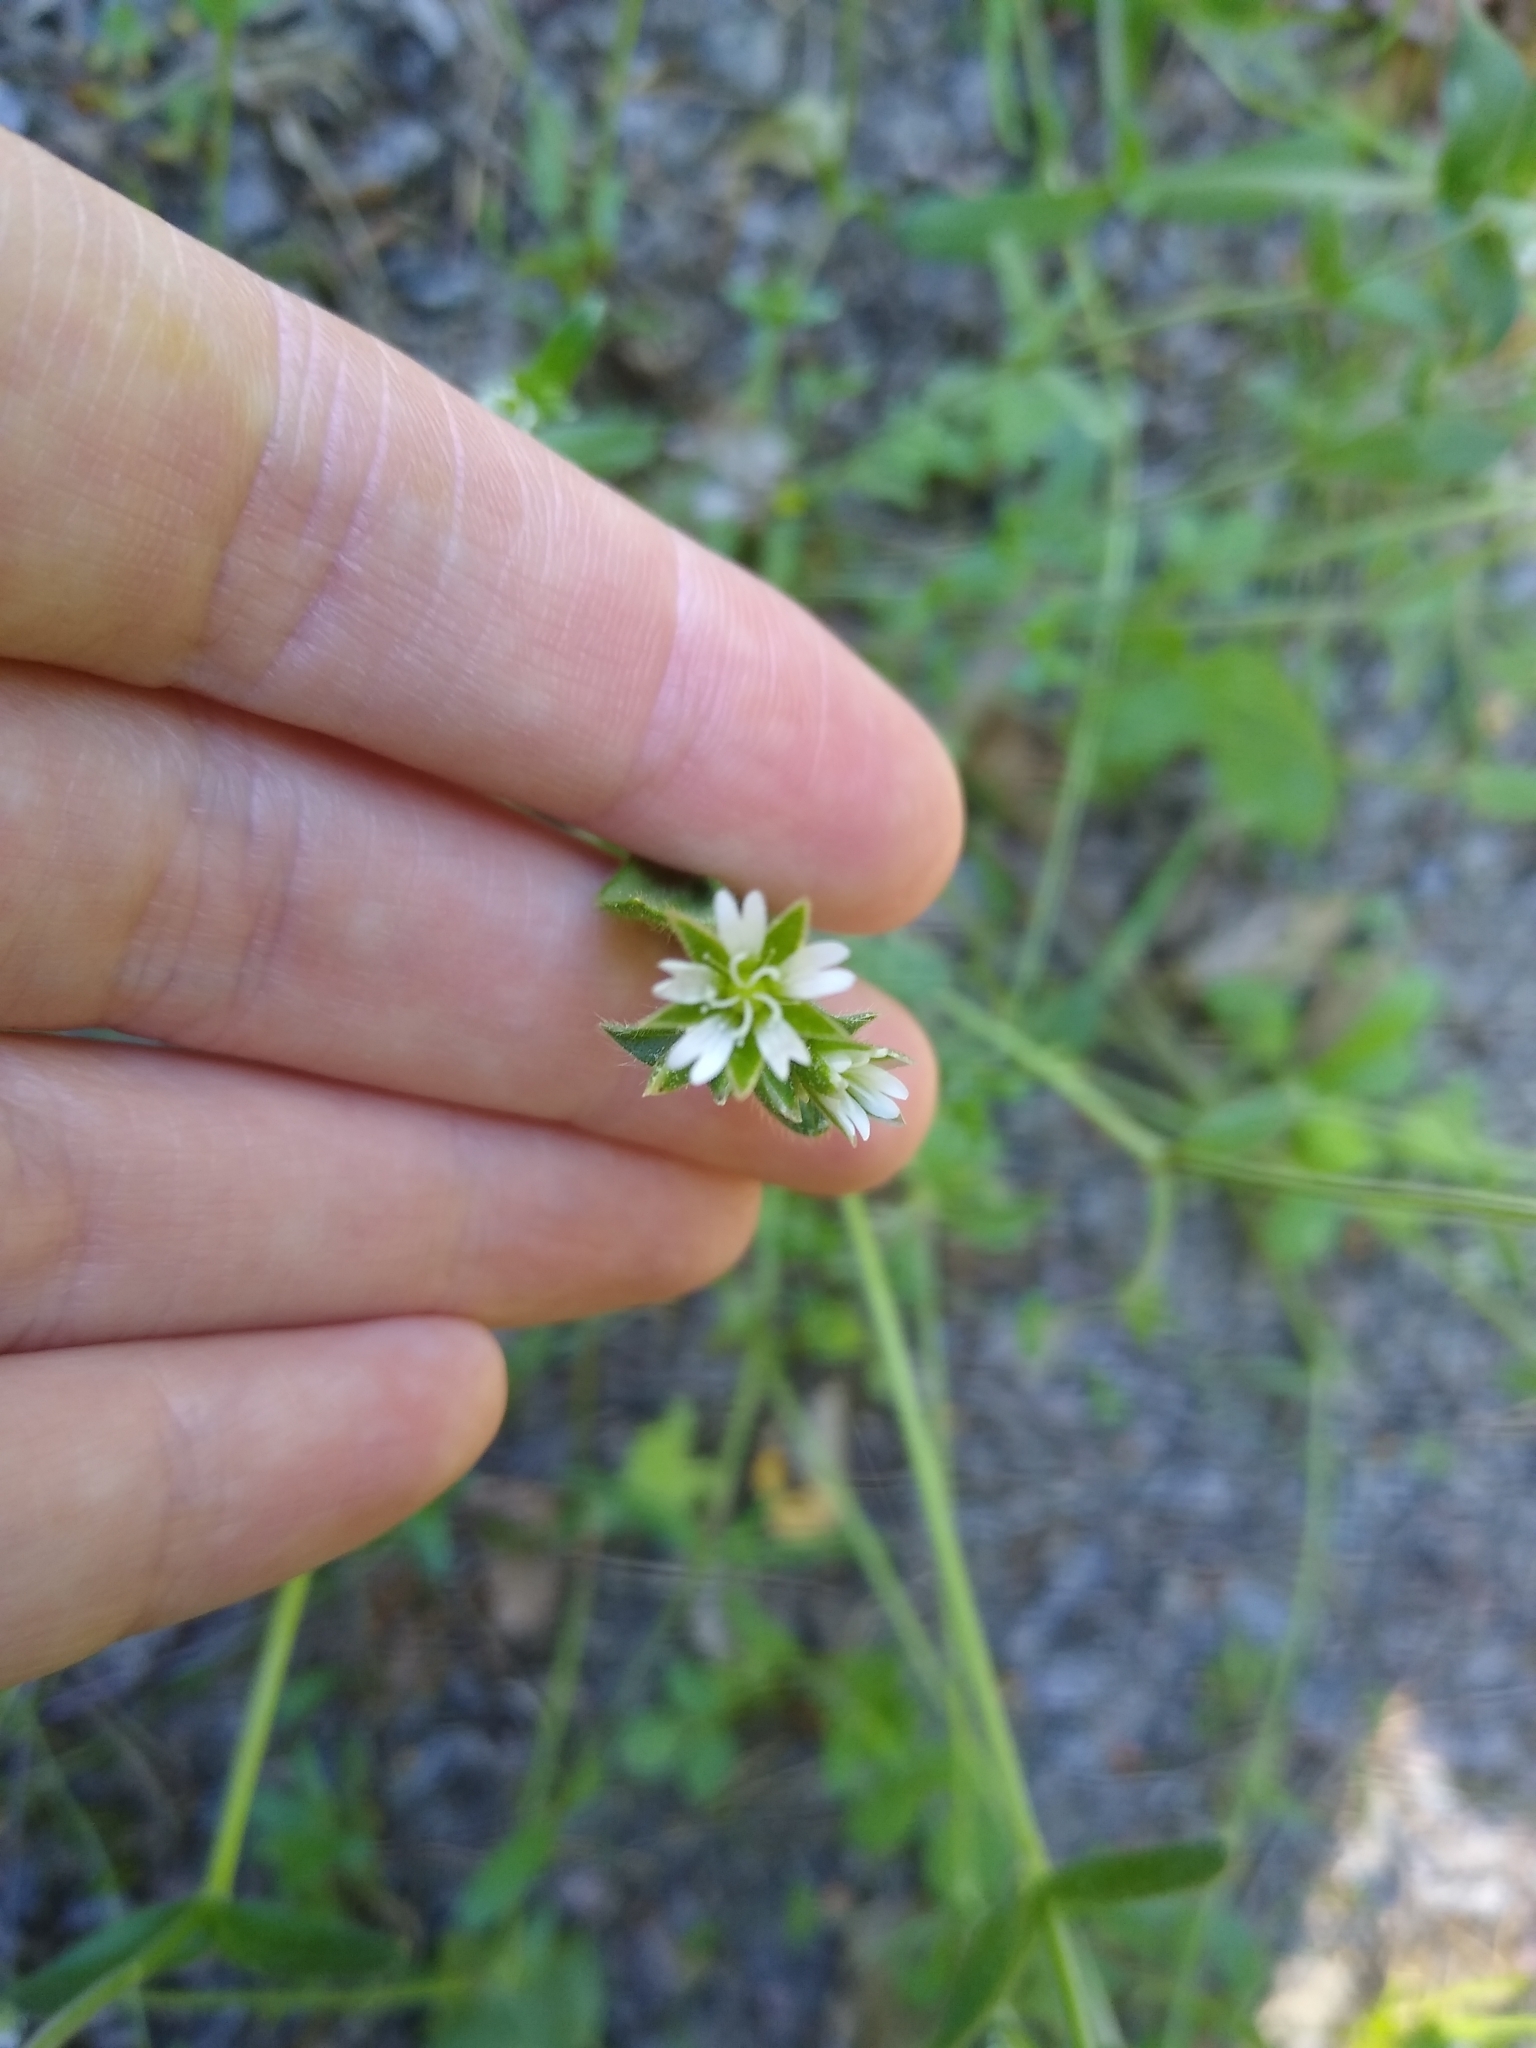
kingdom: Plantae
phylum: Tracheophyta
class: Magnoliopsida
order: Caryophyllales
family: Caryophyllaceae
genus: Cerastium
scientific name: Cerastium fontanum
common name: Common mouse-ear
